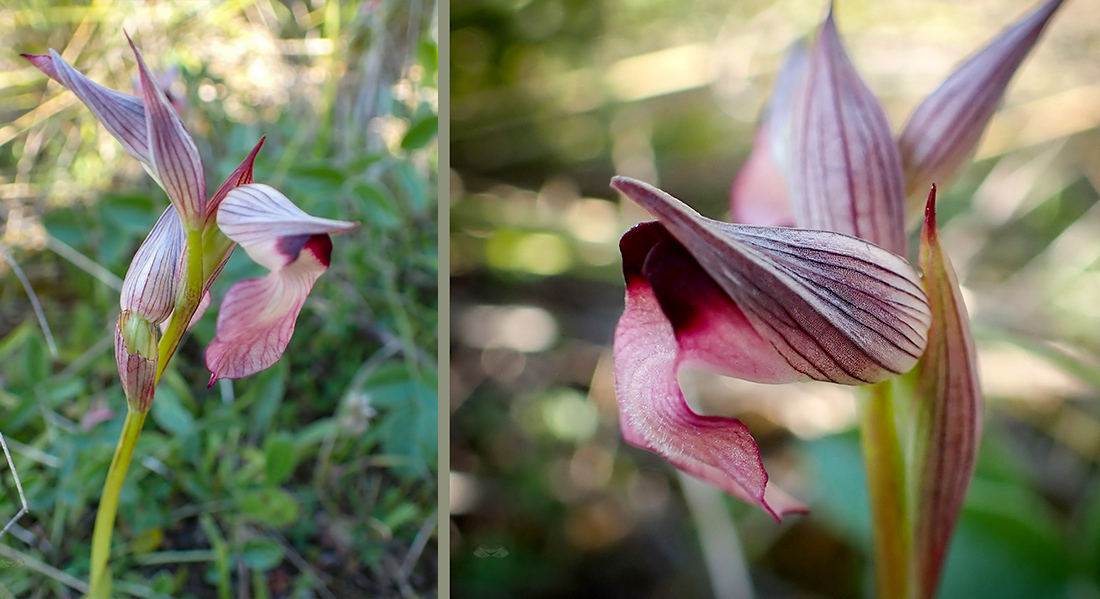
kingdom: Plantae
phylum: Tracheophyta
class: Liliopsida
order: Asparagales
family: Orchidaceae
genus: Serapias
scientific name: Serapias lingua
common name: Tongue-orchid
